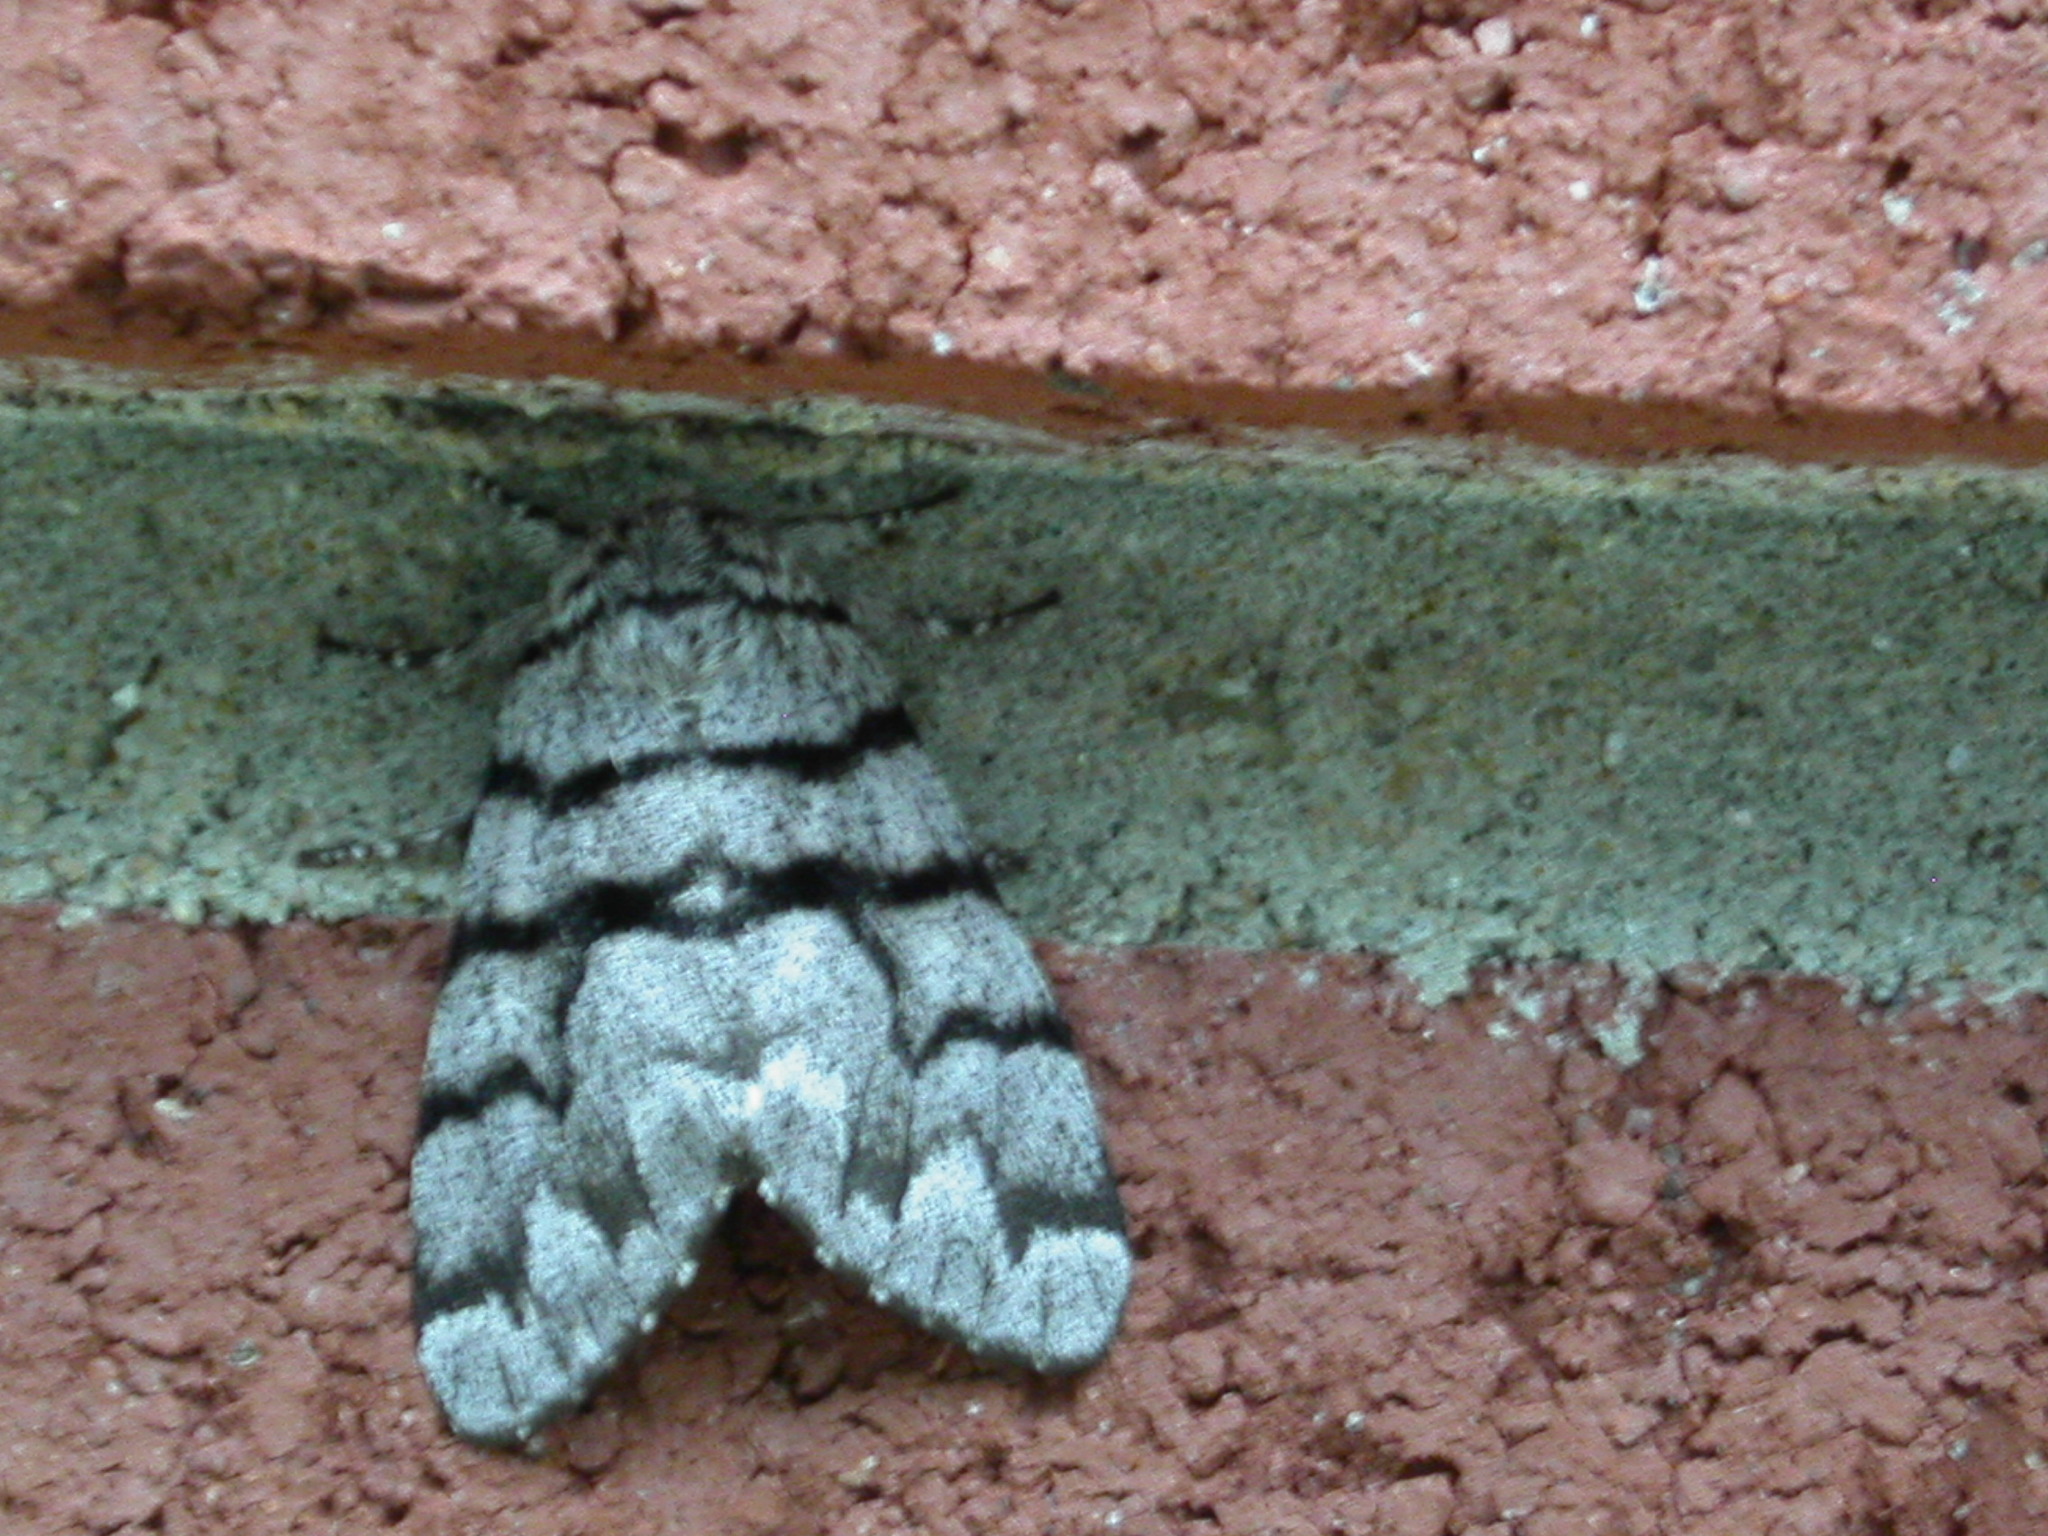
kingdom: Animalia
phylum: Arthropoda
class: Insecta
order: Lepidoptera
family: Noctuidae
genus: Panthea
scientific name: Panthea furcilla
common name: Eastern panthea moth
